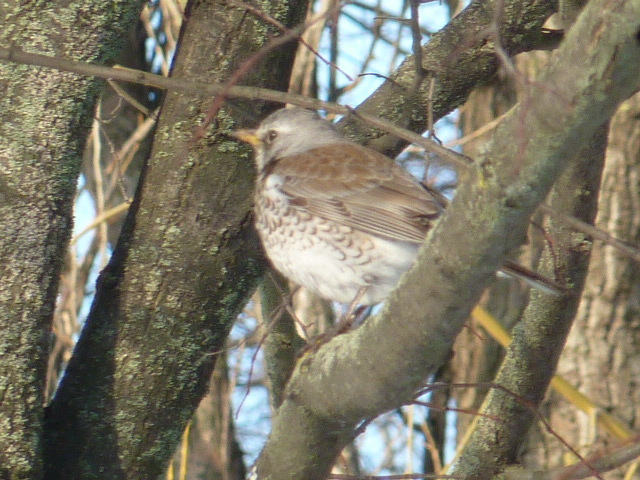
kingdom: Animalia
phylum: Chordata
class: Aves
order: Passeriformes
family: Turdidae
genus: Turdus
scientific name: Turdus pilaris
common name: Fieldfare
